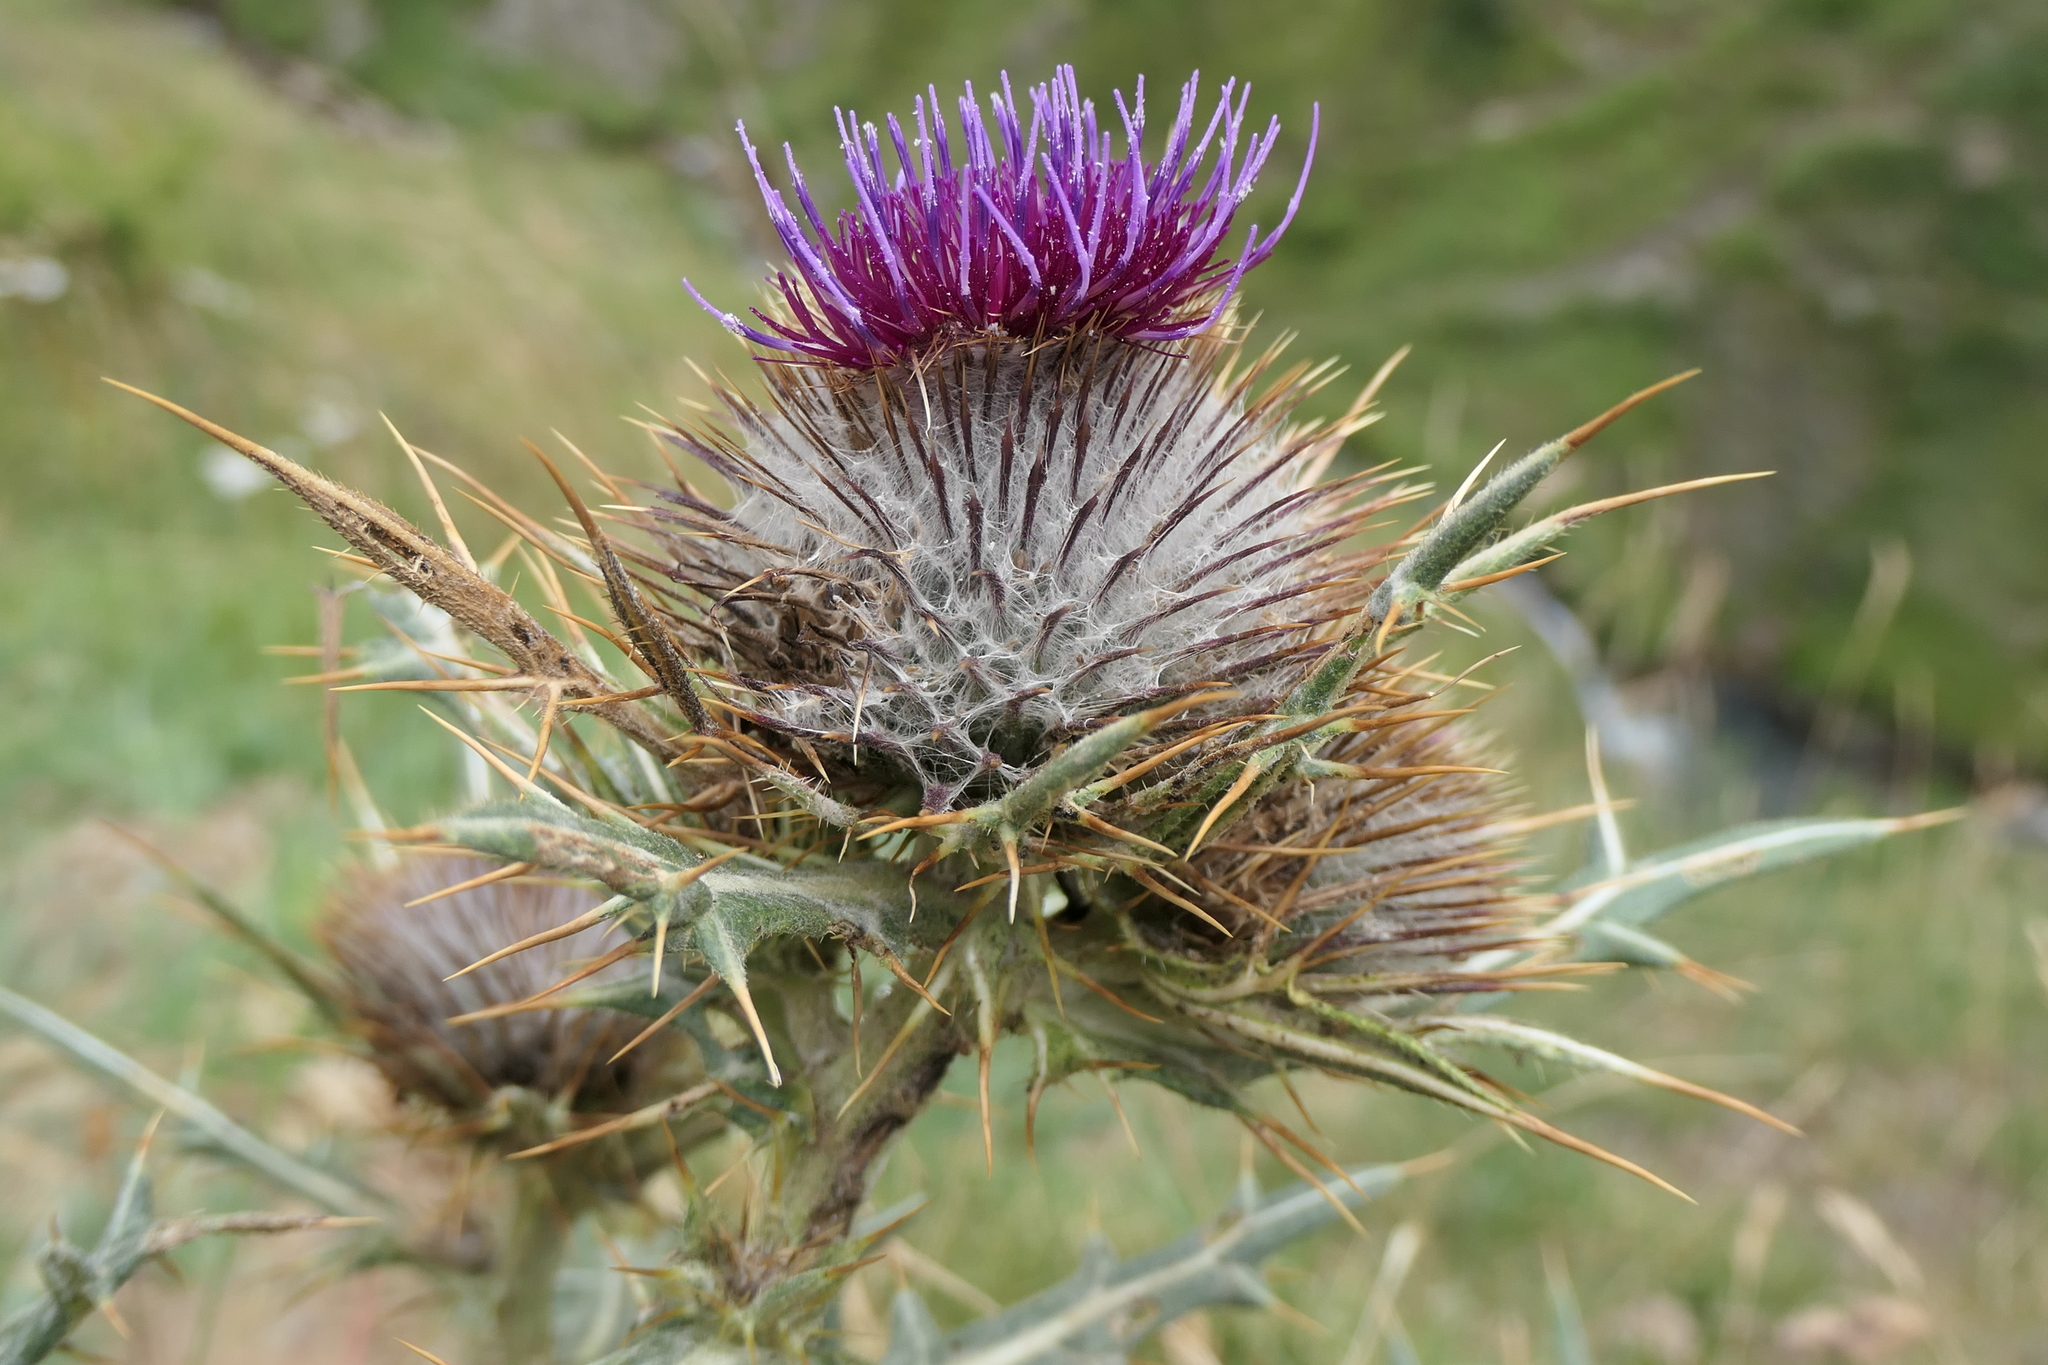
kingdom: Plantae
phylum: Tracheophyta
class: Magnoliopsida
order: Asterales
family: Asteraceae
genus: Lophiolepis
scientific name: Lophiolepis eriophora
